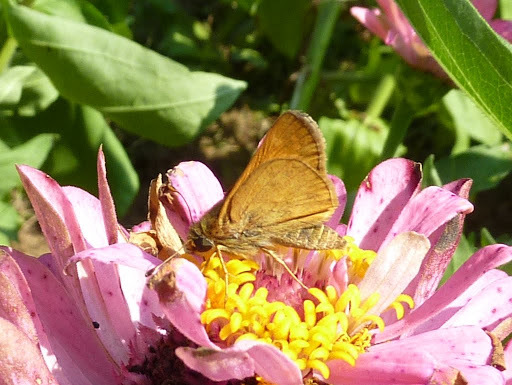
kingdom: Animalia
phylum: Arthropoda
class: Insecta
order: Lepidoptera
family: Hesperiidae
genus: Atalopedes
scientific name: Atalopedes
